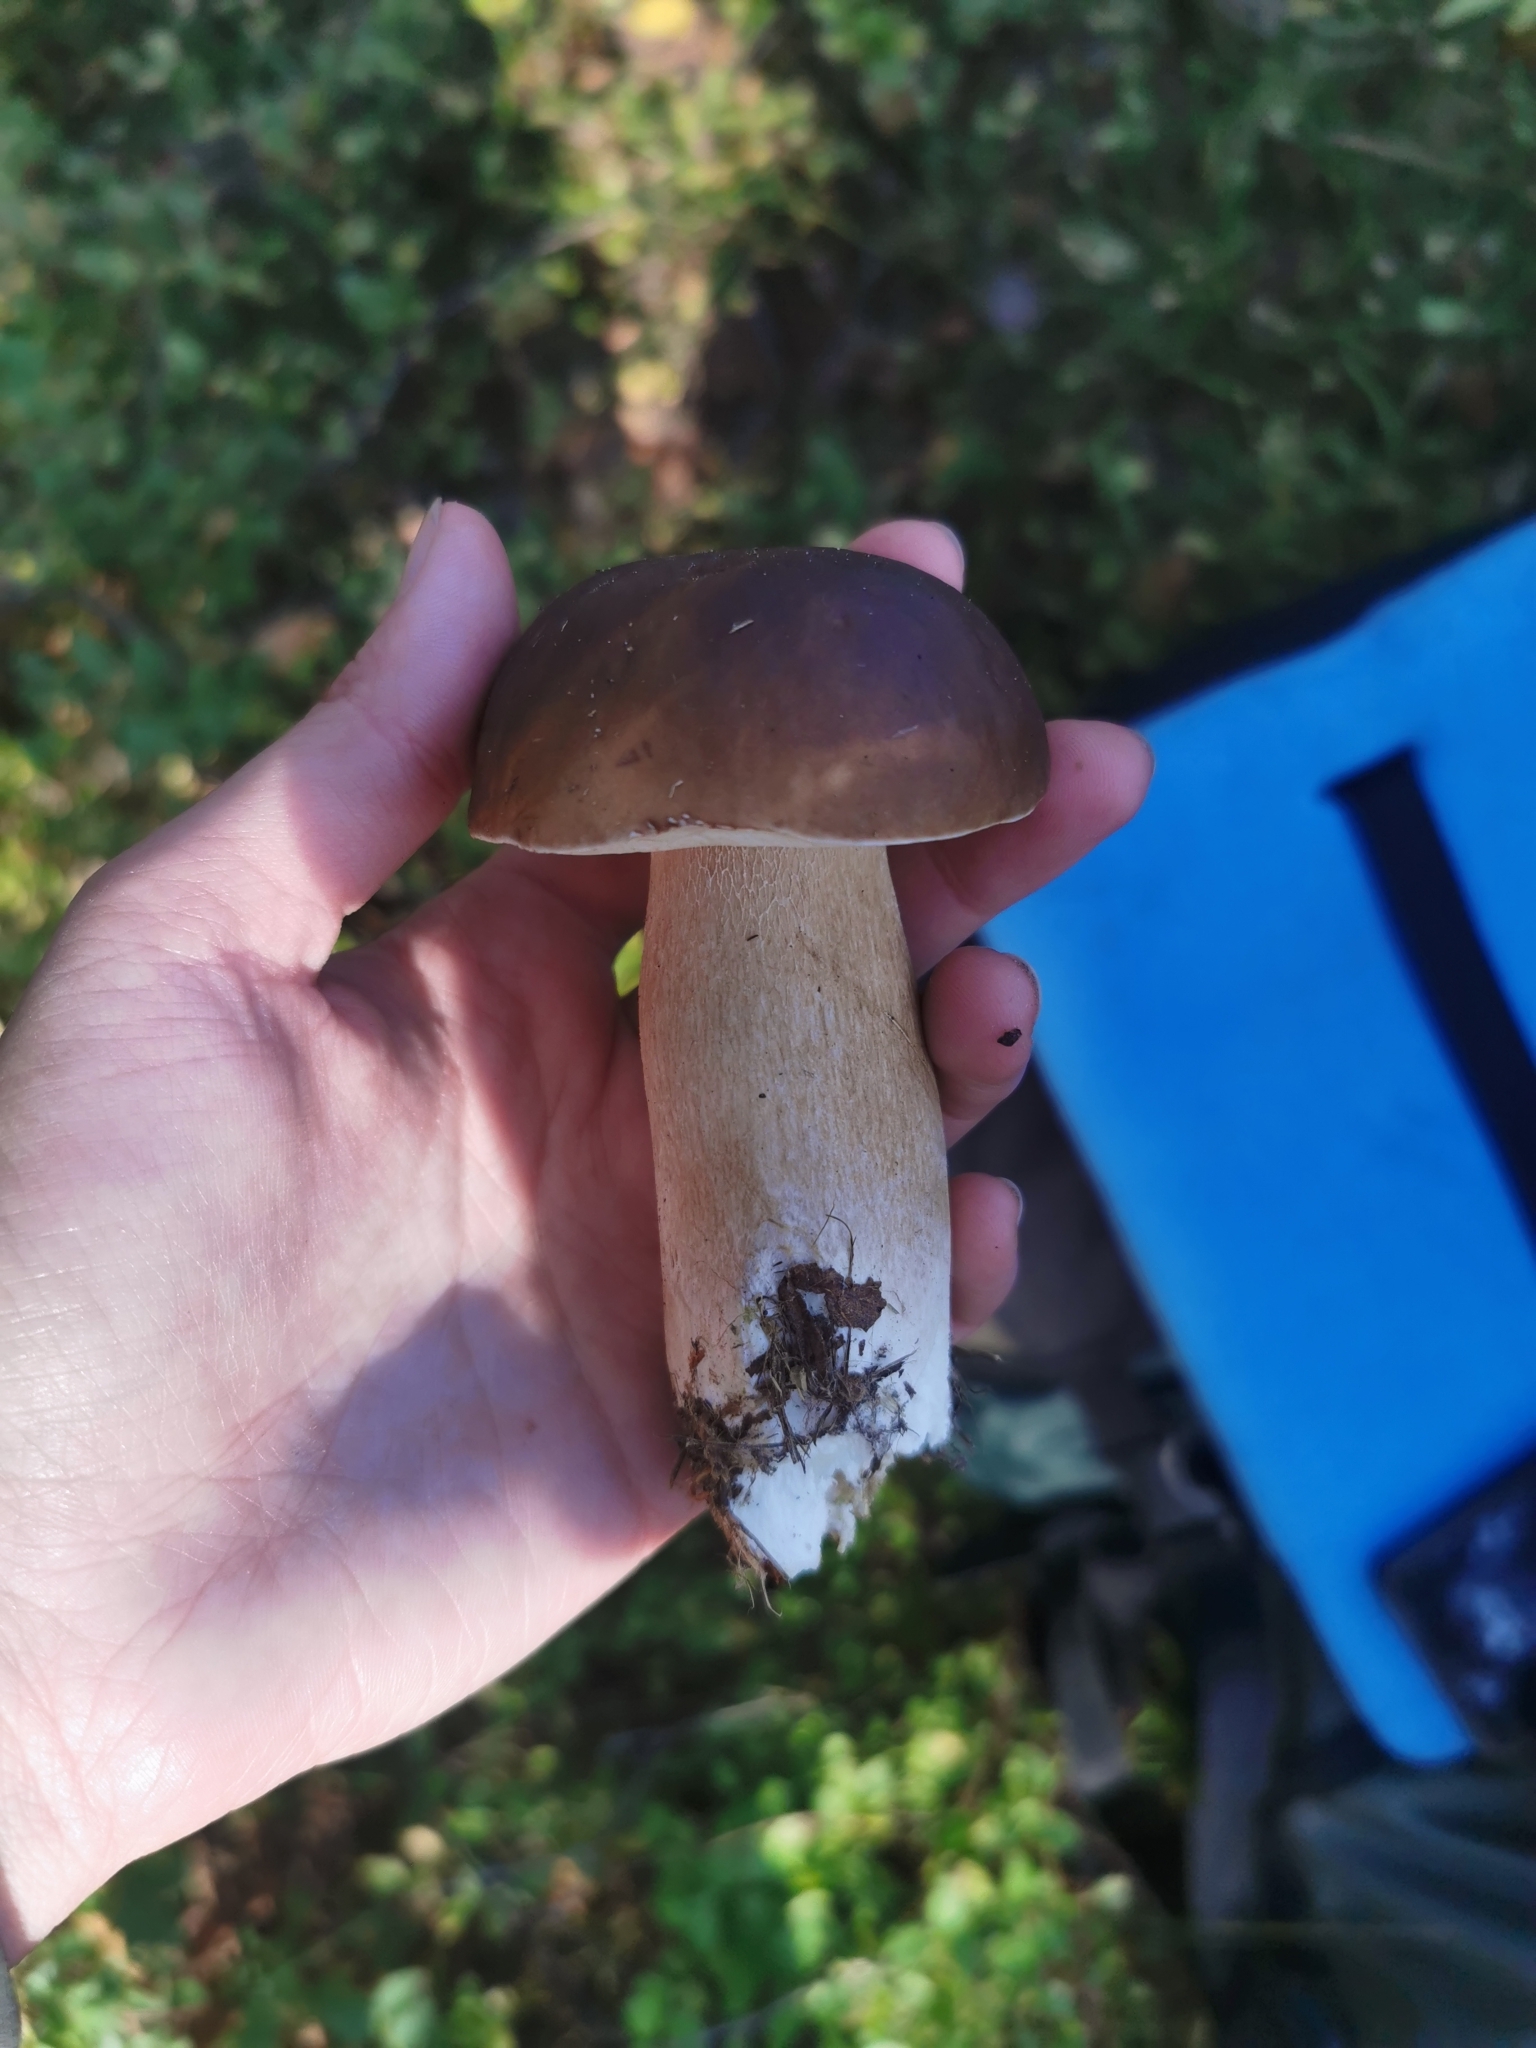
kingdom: Fungi
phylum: Basidiomycota
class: Agaricomycetes
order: Boletales
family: Boletaceae
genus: Boletus
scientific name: Boletus edulis
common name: Cep
